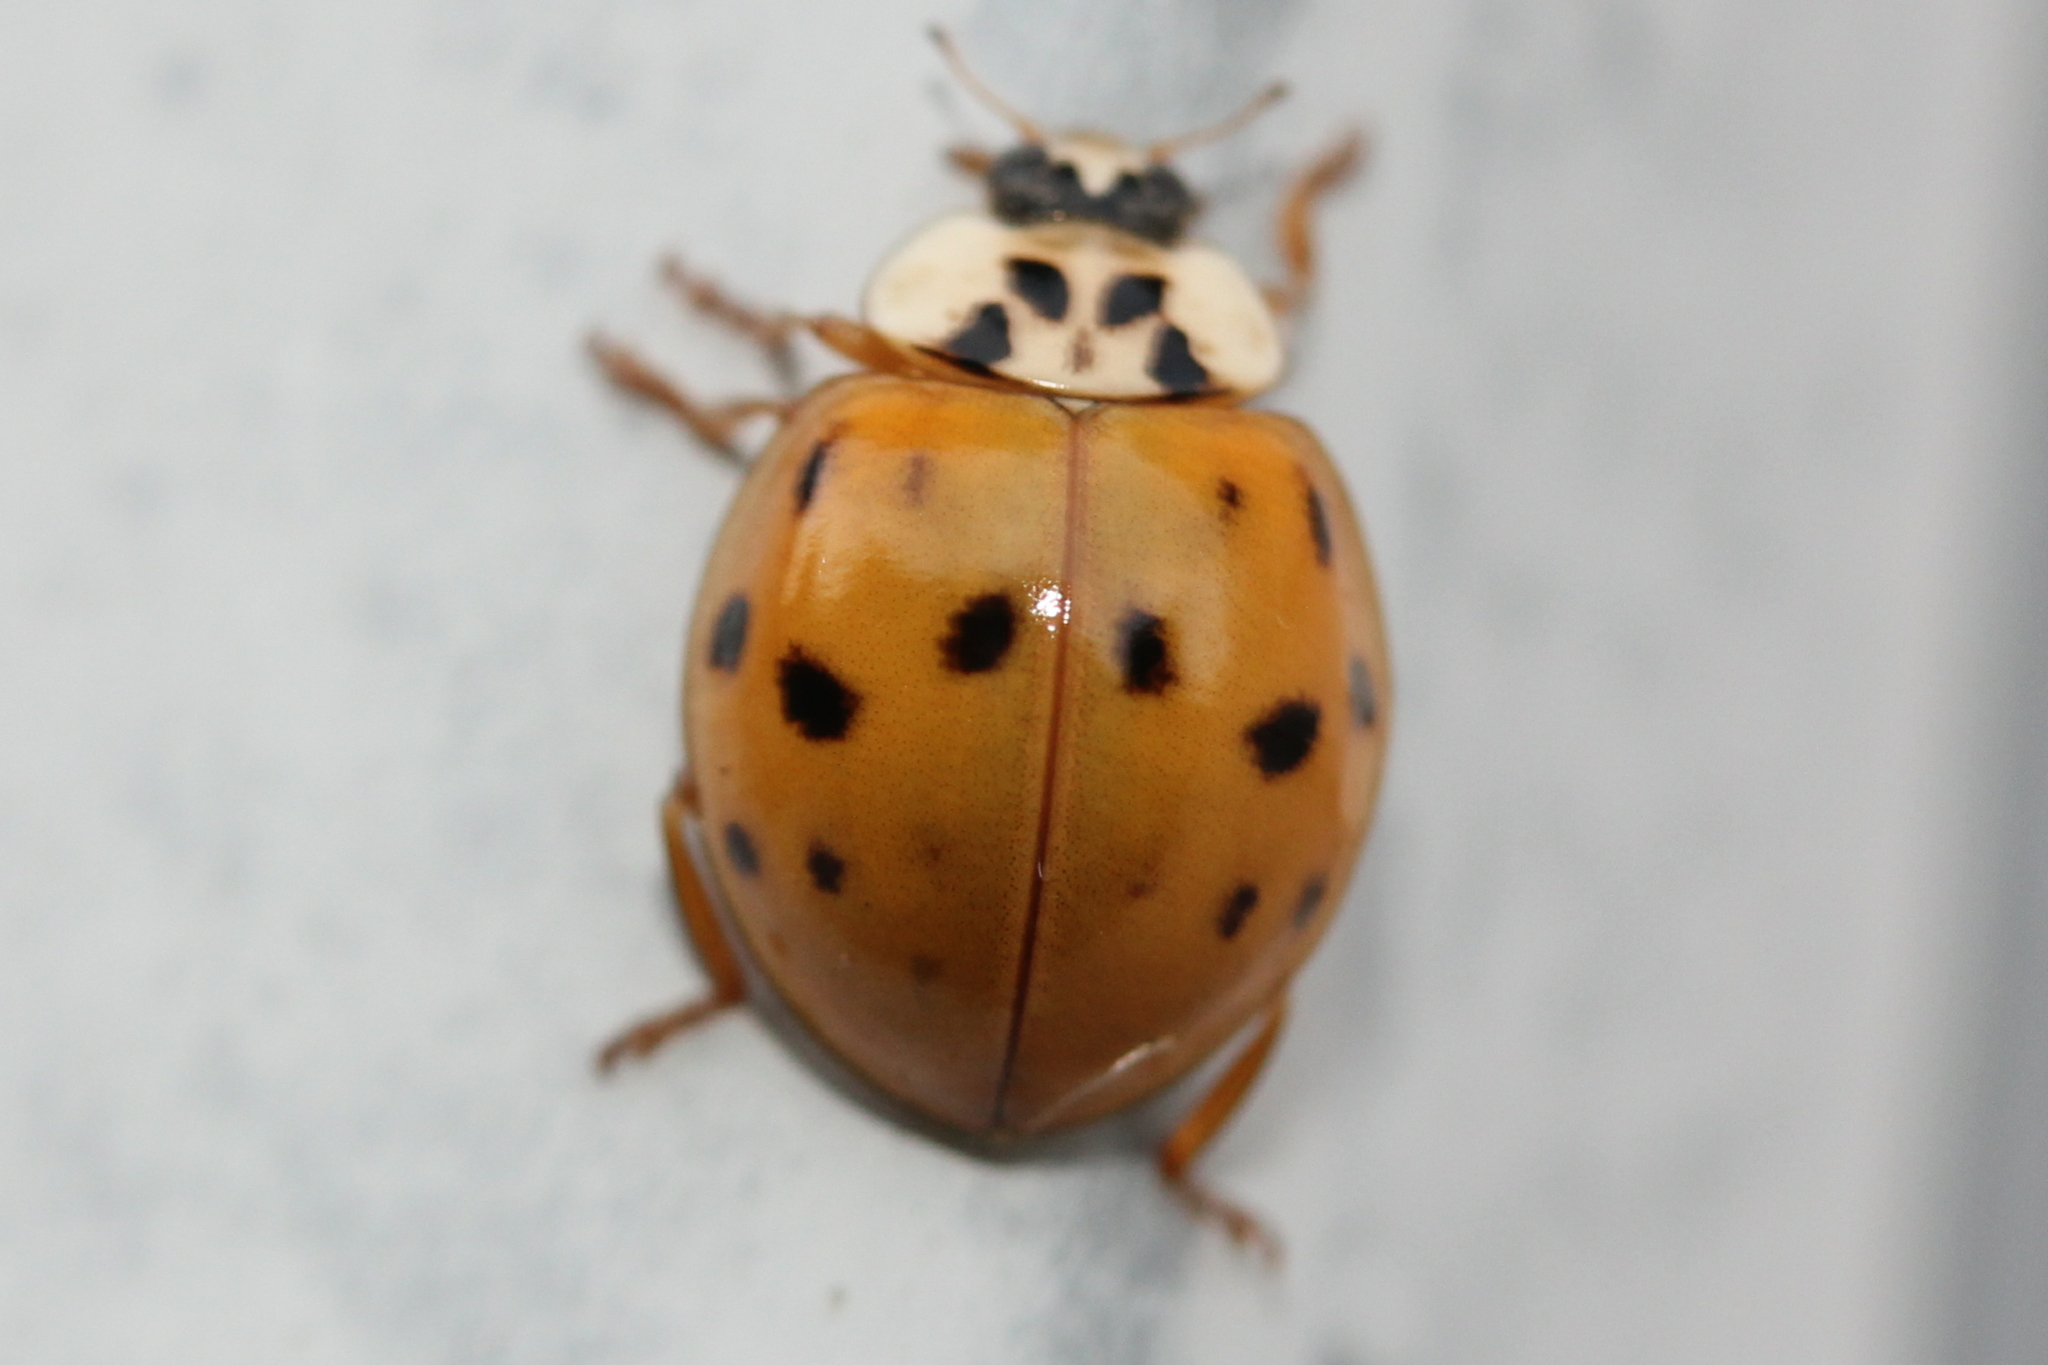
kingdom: Animalia
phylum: Arthropoda
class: Insecta
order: Coleoptera
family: Coccinellidae
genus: Harmonia
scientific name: Harmonia axyridis
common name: Harlequin ladybird
